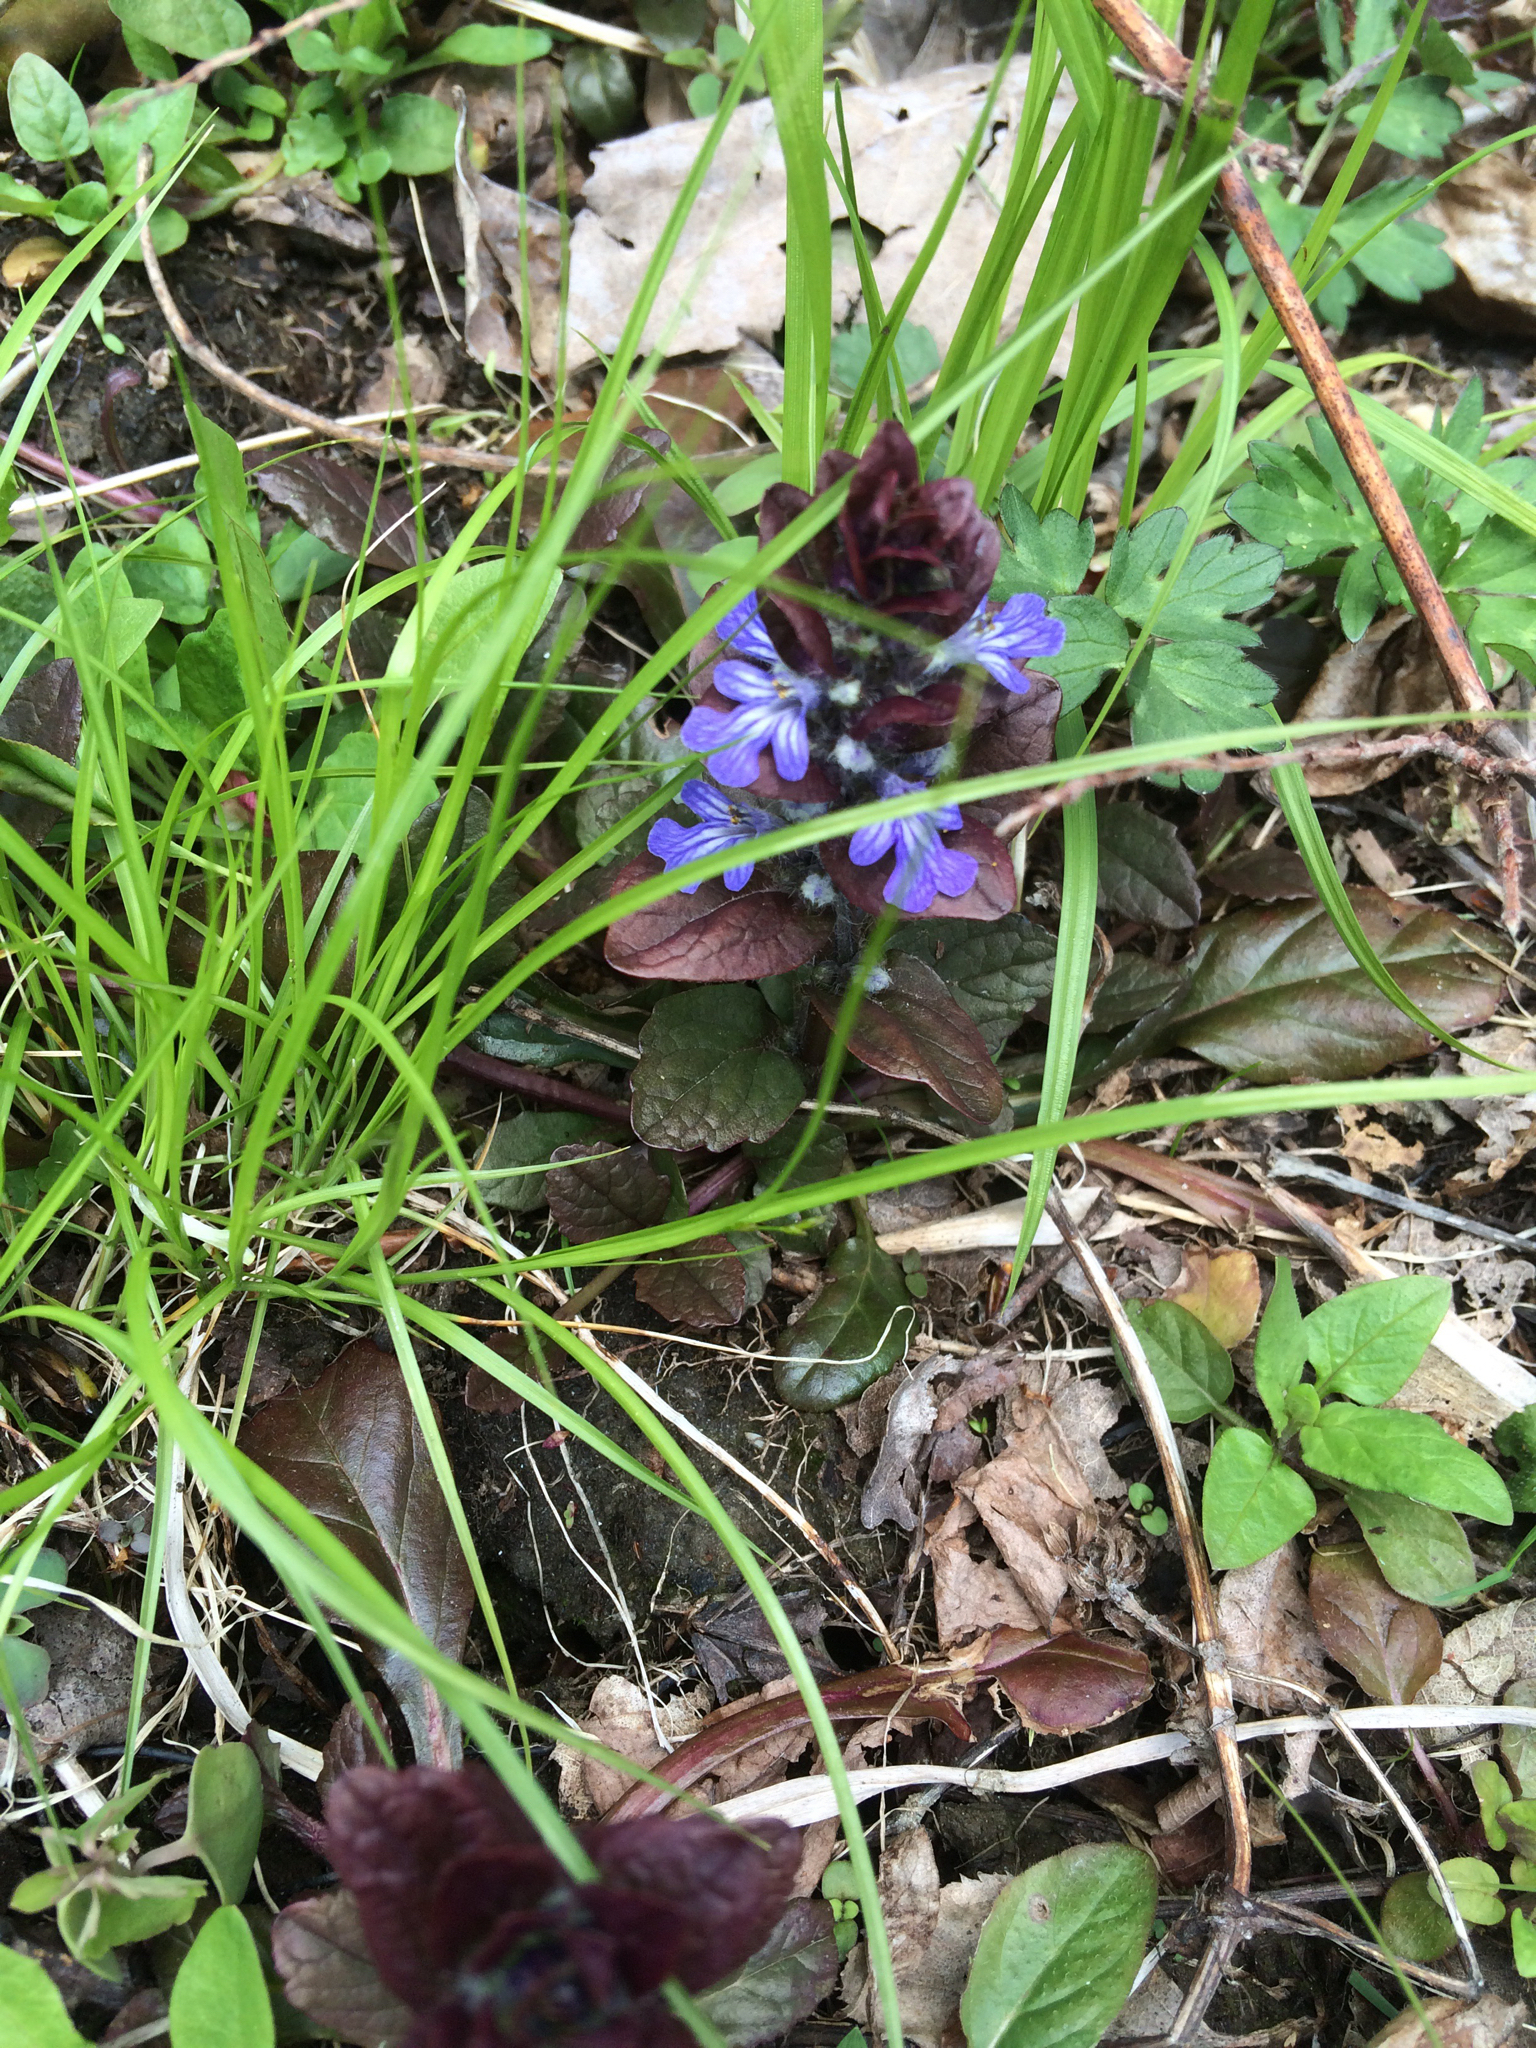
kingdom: Plantae
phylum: Tracheophyta
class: Magnoliopsida
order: Lamiales
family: Lamiaceae
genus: Ajuga
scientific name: Ajuga reptans
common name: Bugle
